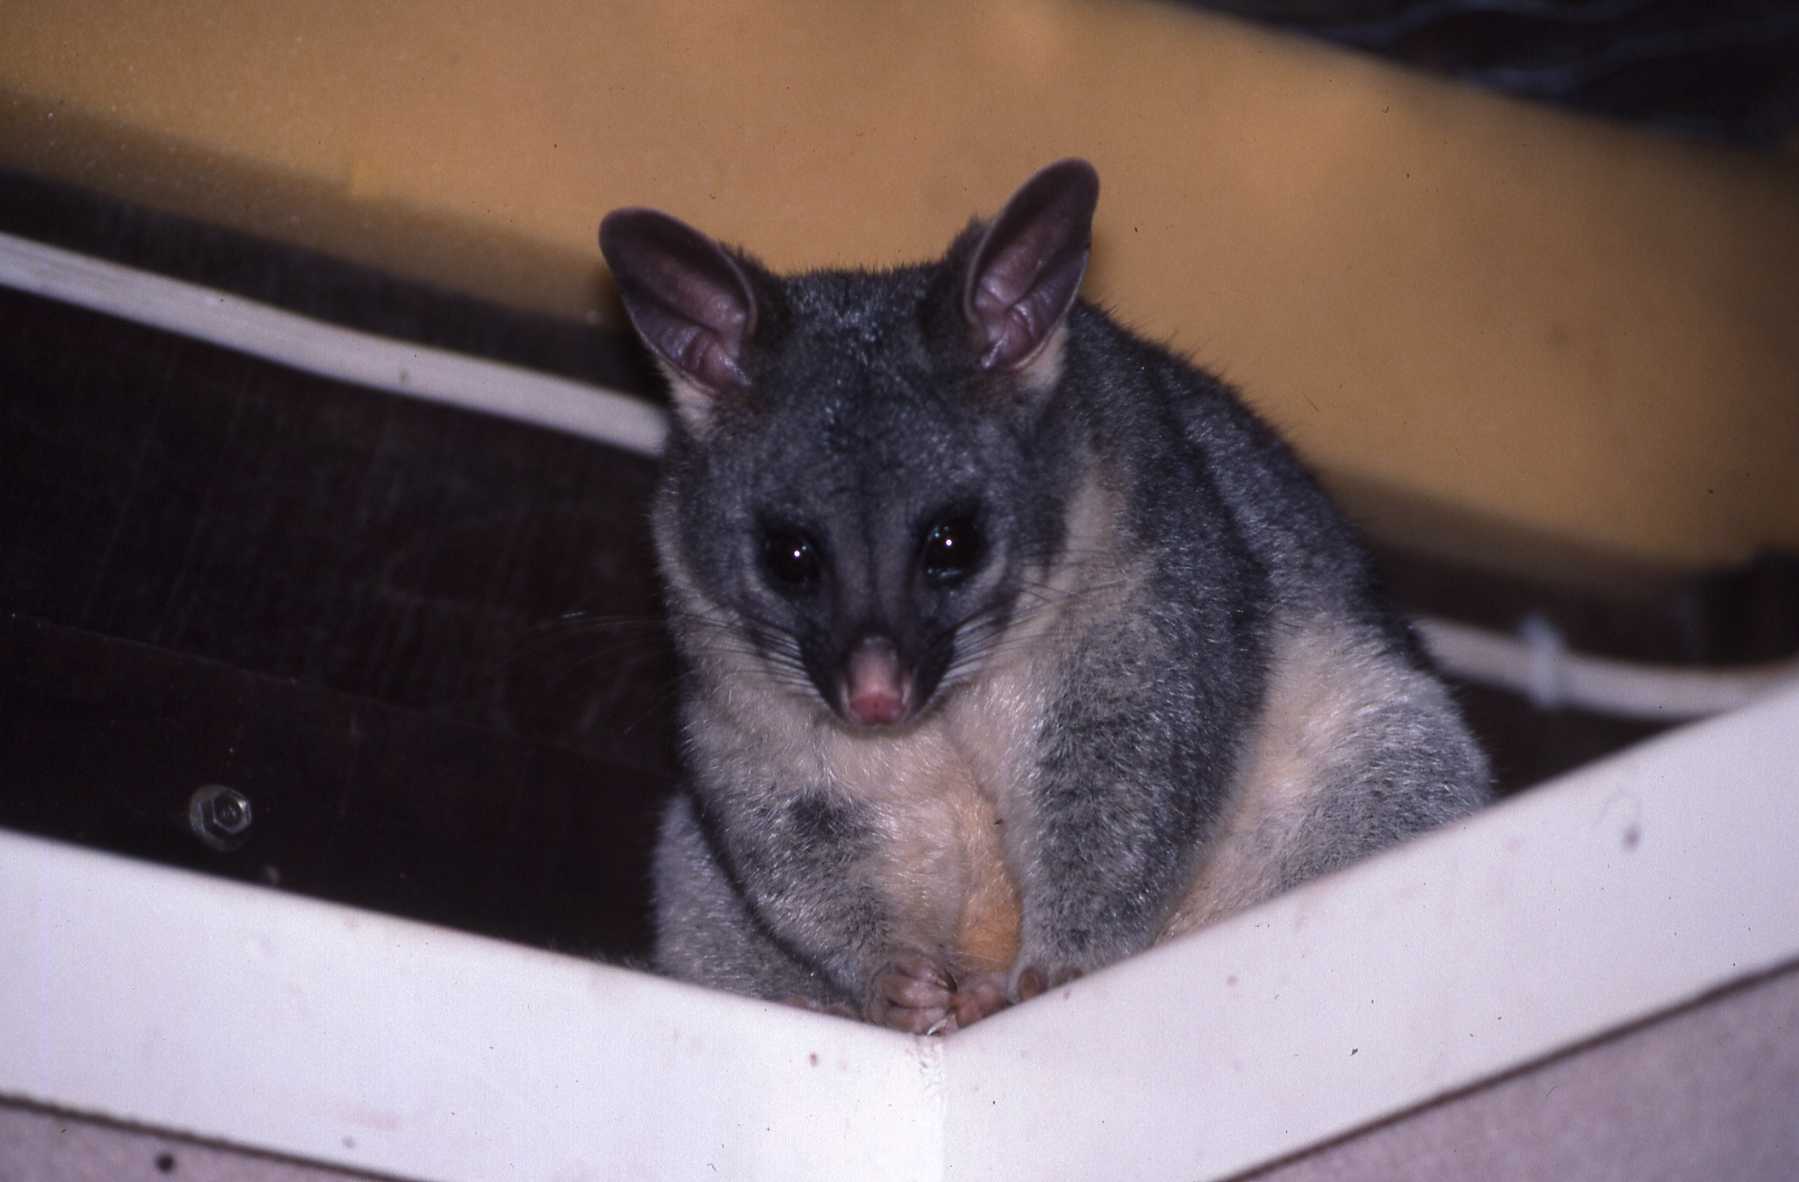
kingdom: Animalia
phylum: Chordata
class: Mammalia
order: Diprotodontia
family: Phalangeridae
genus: Trichosurus
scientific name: Trichosurus vulpecula
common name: Common brushtail
